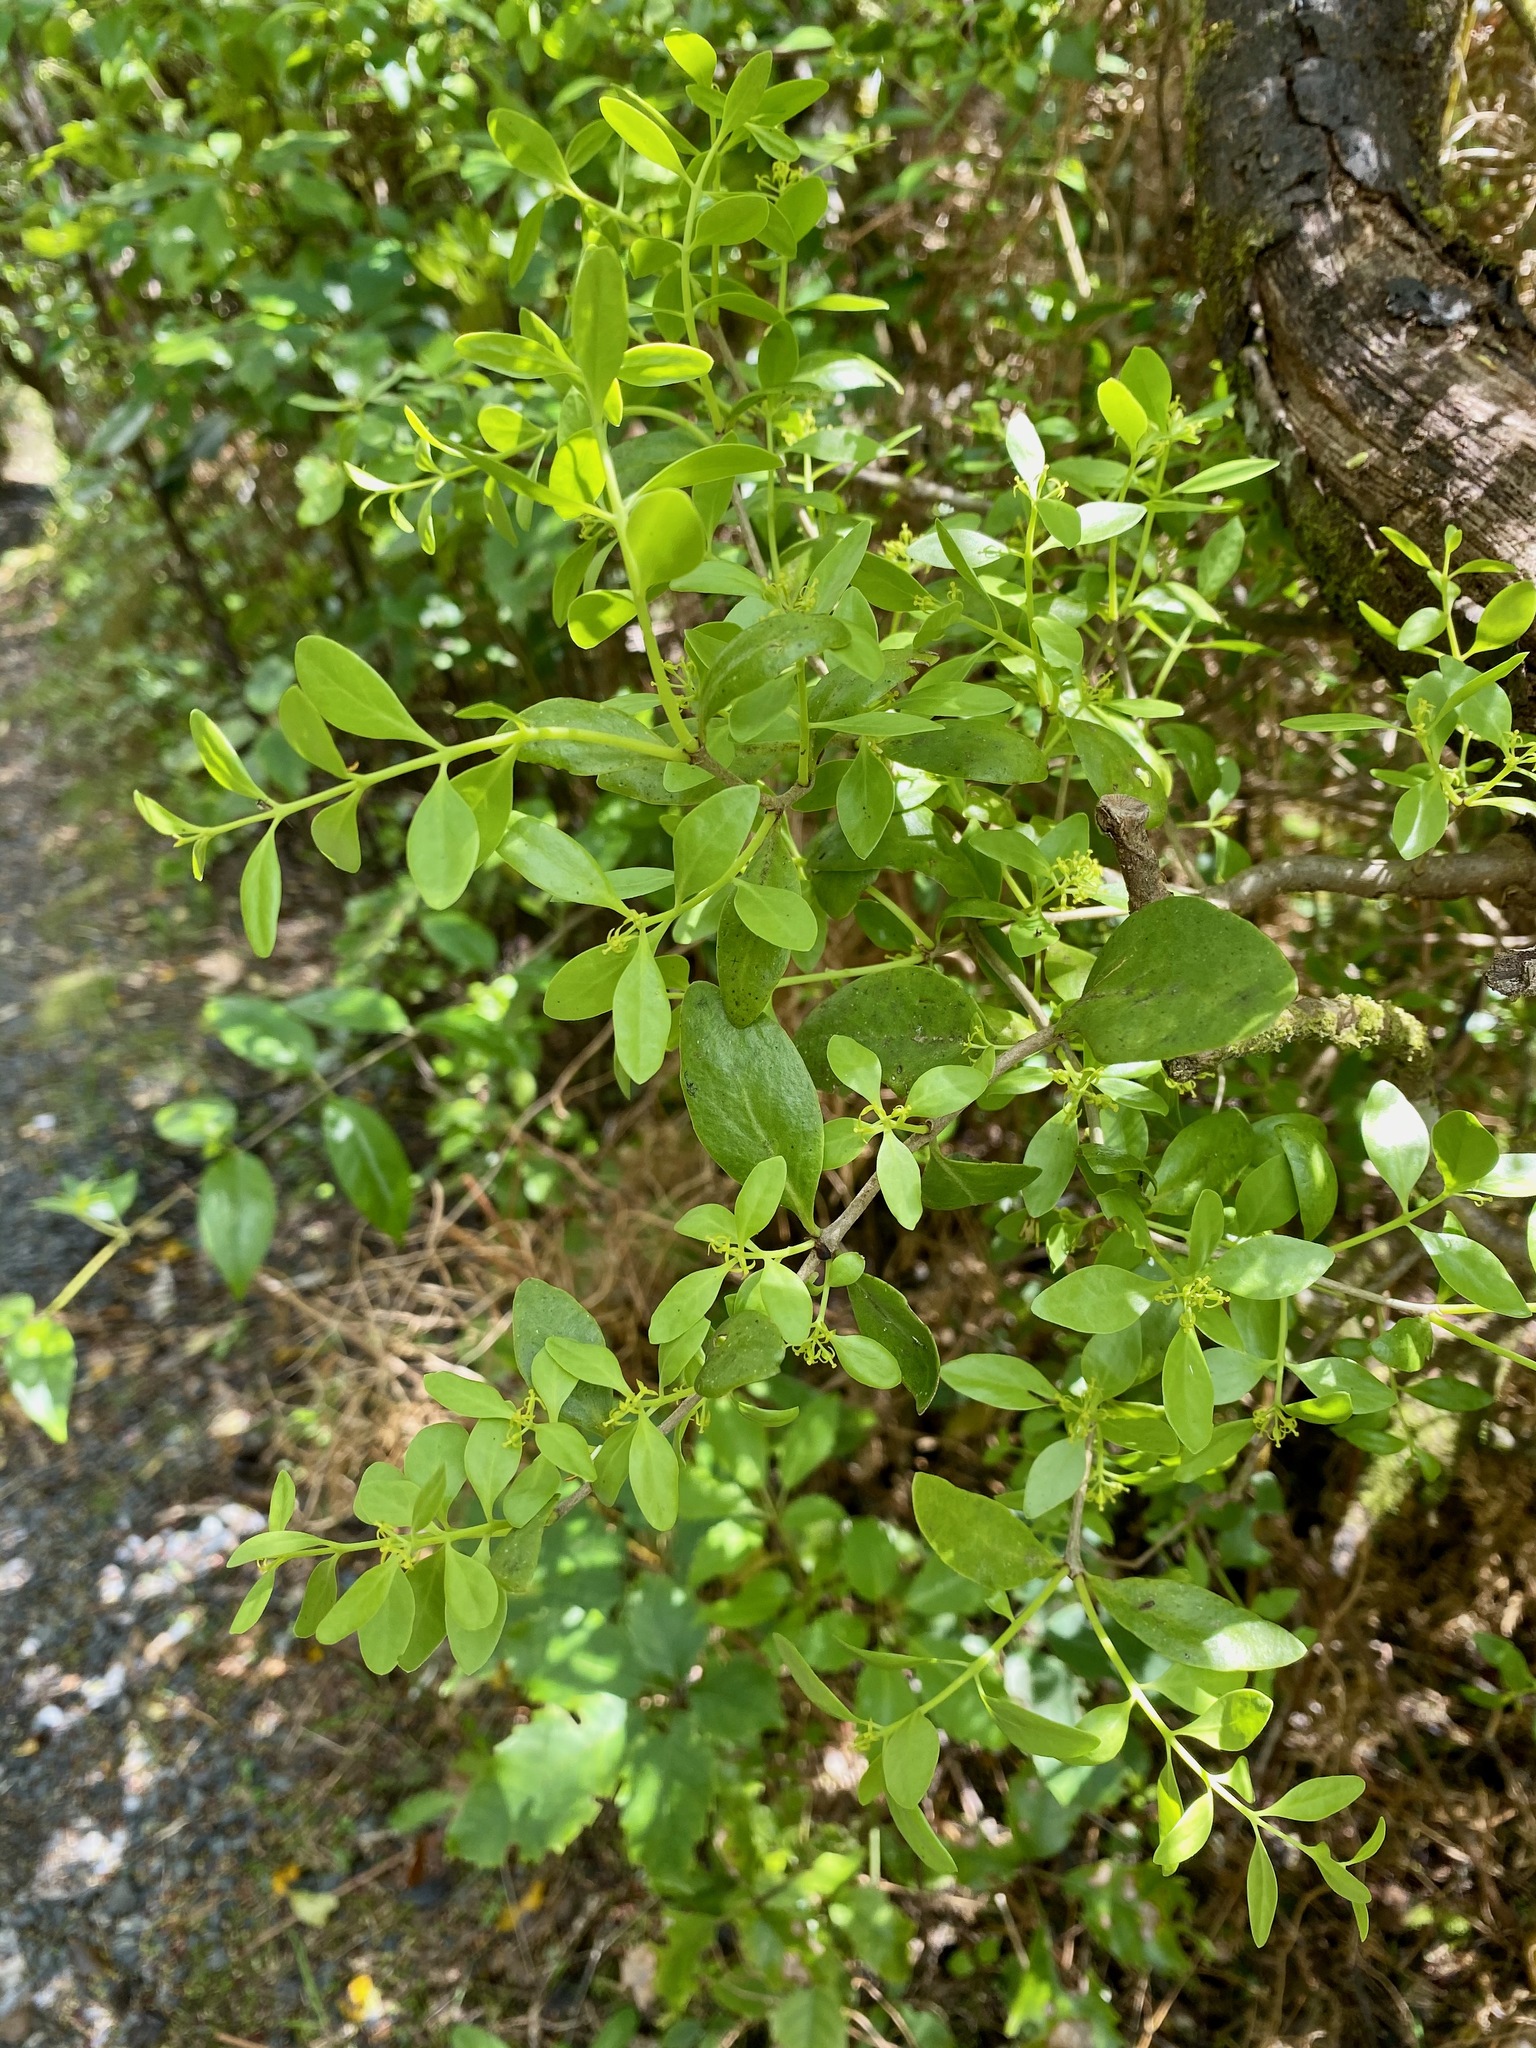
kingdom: Plantae
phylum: Tracheophyta
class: Magnoliopsida
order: Santalales
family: Loranthaceae
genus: Tupeia
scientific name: Tupeia antarctica
